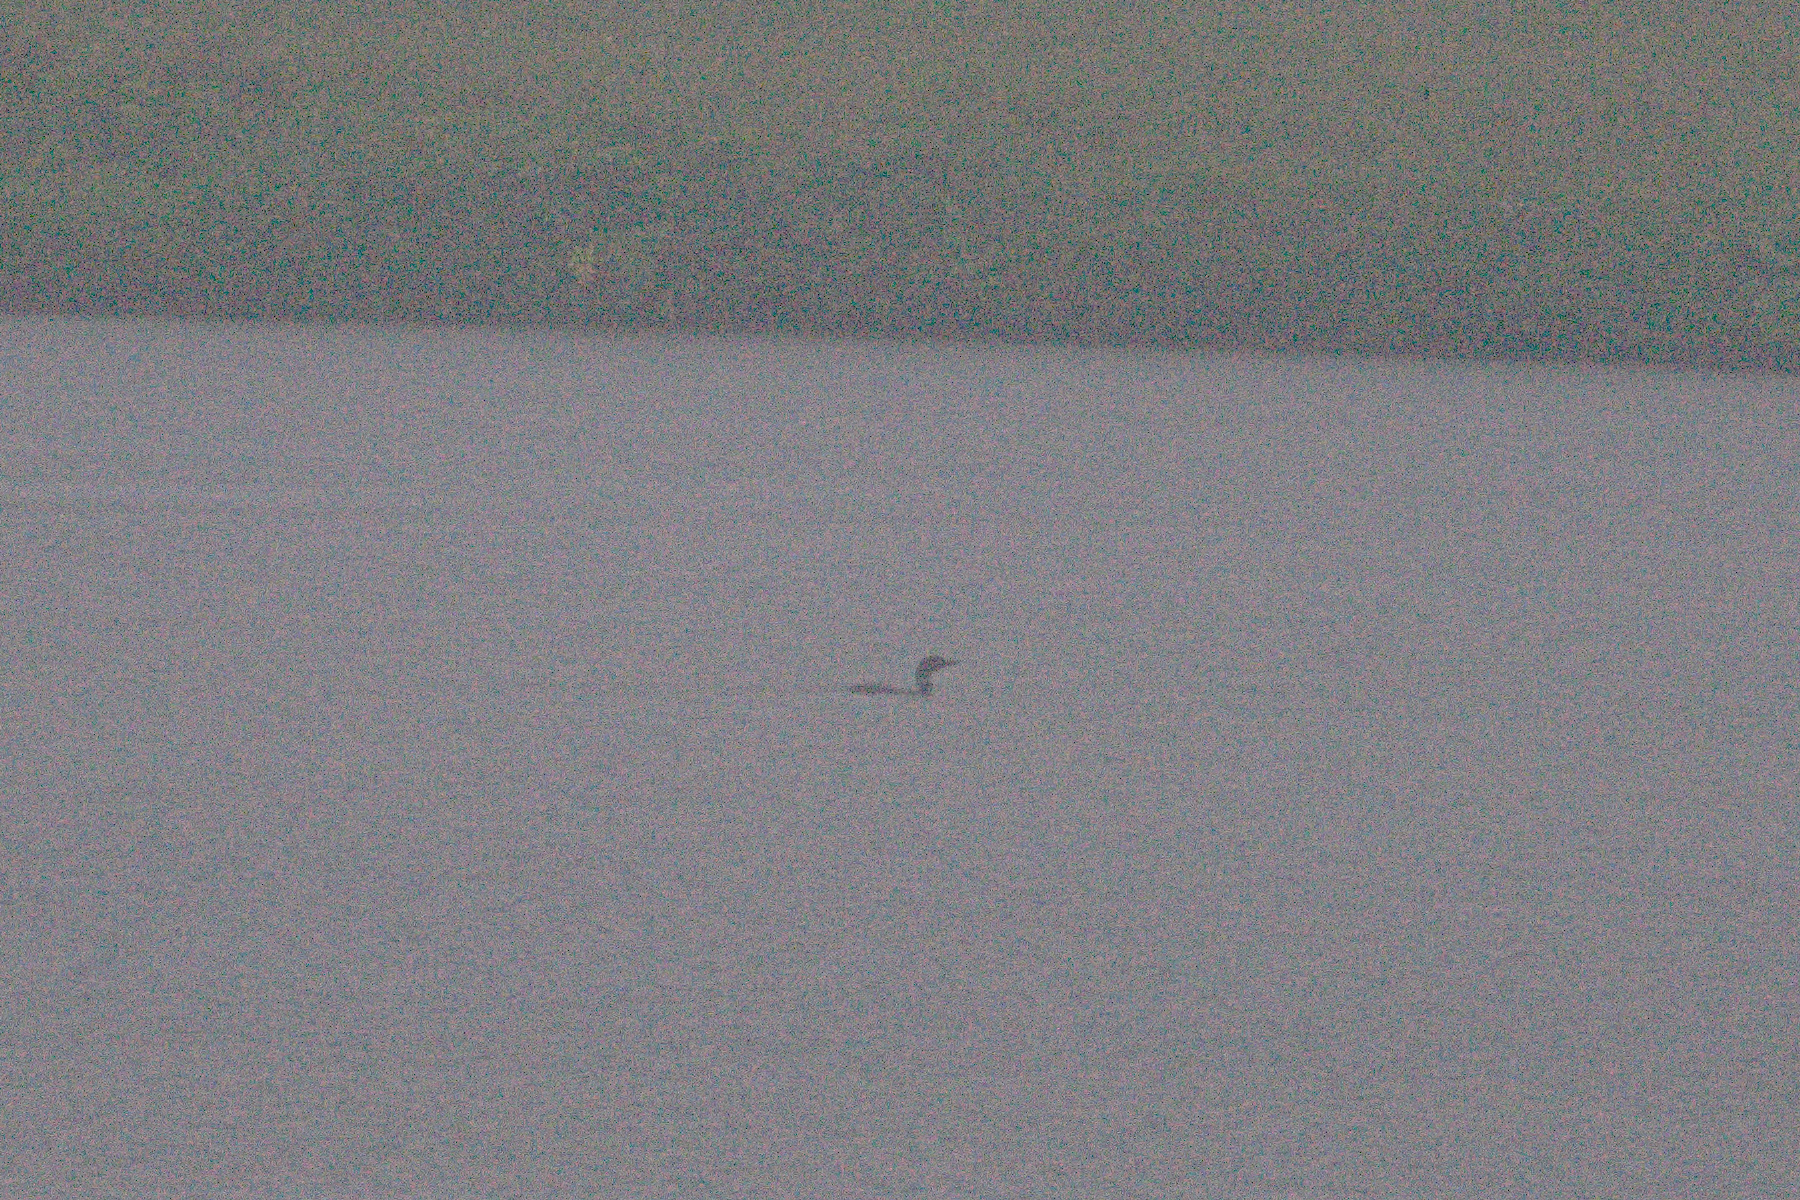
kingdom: Animalia
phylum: Chordata
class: Aves
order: Gaviiformes
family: Gaviidae
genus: Gavia
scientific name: Gavia immer
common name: Common loon
